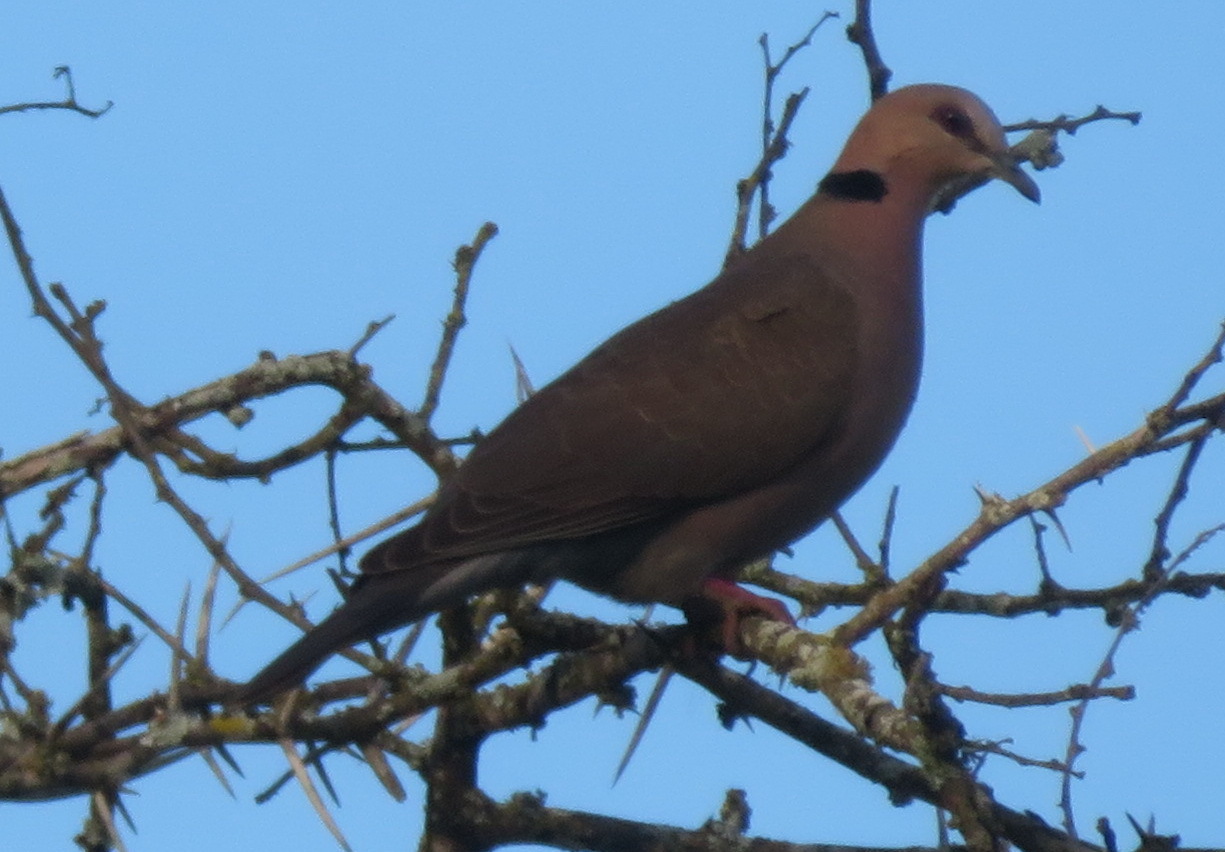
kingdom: Animalia
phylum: Chordata
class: Aves
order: Columbiformes
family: Columbidae
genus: Streptopelia
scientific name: Streptopelia semitorquata
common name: Red-eyed dove
